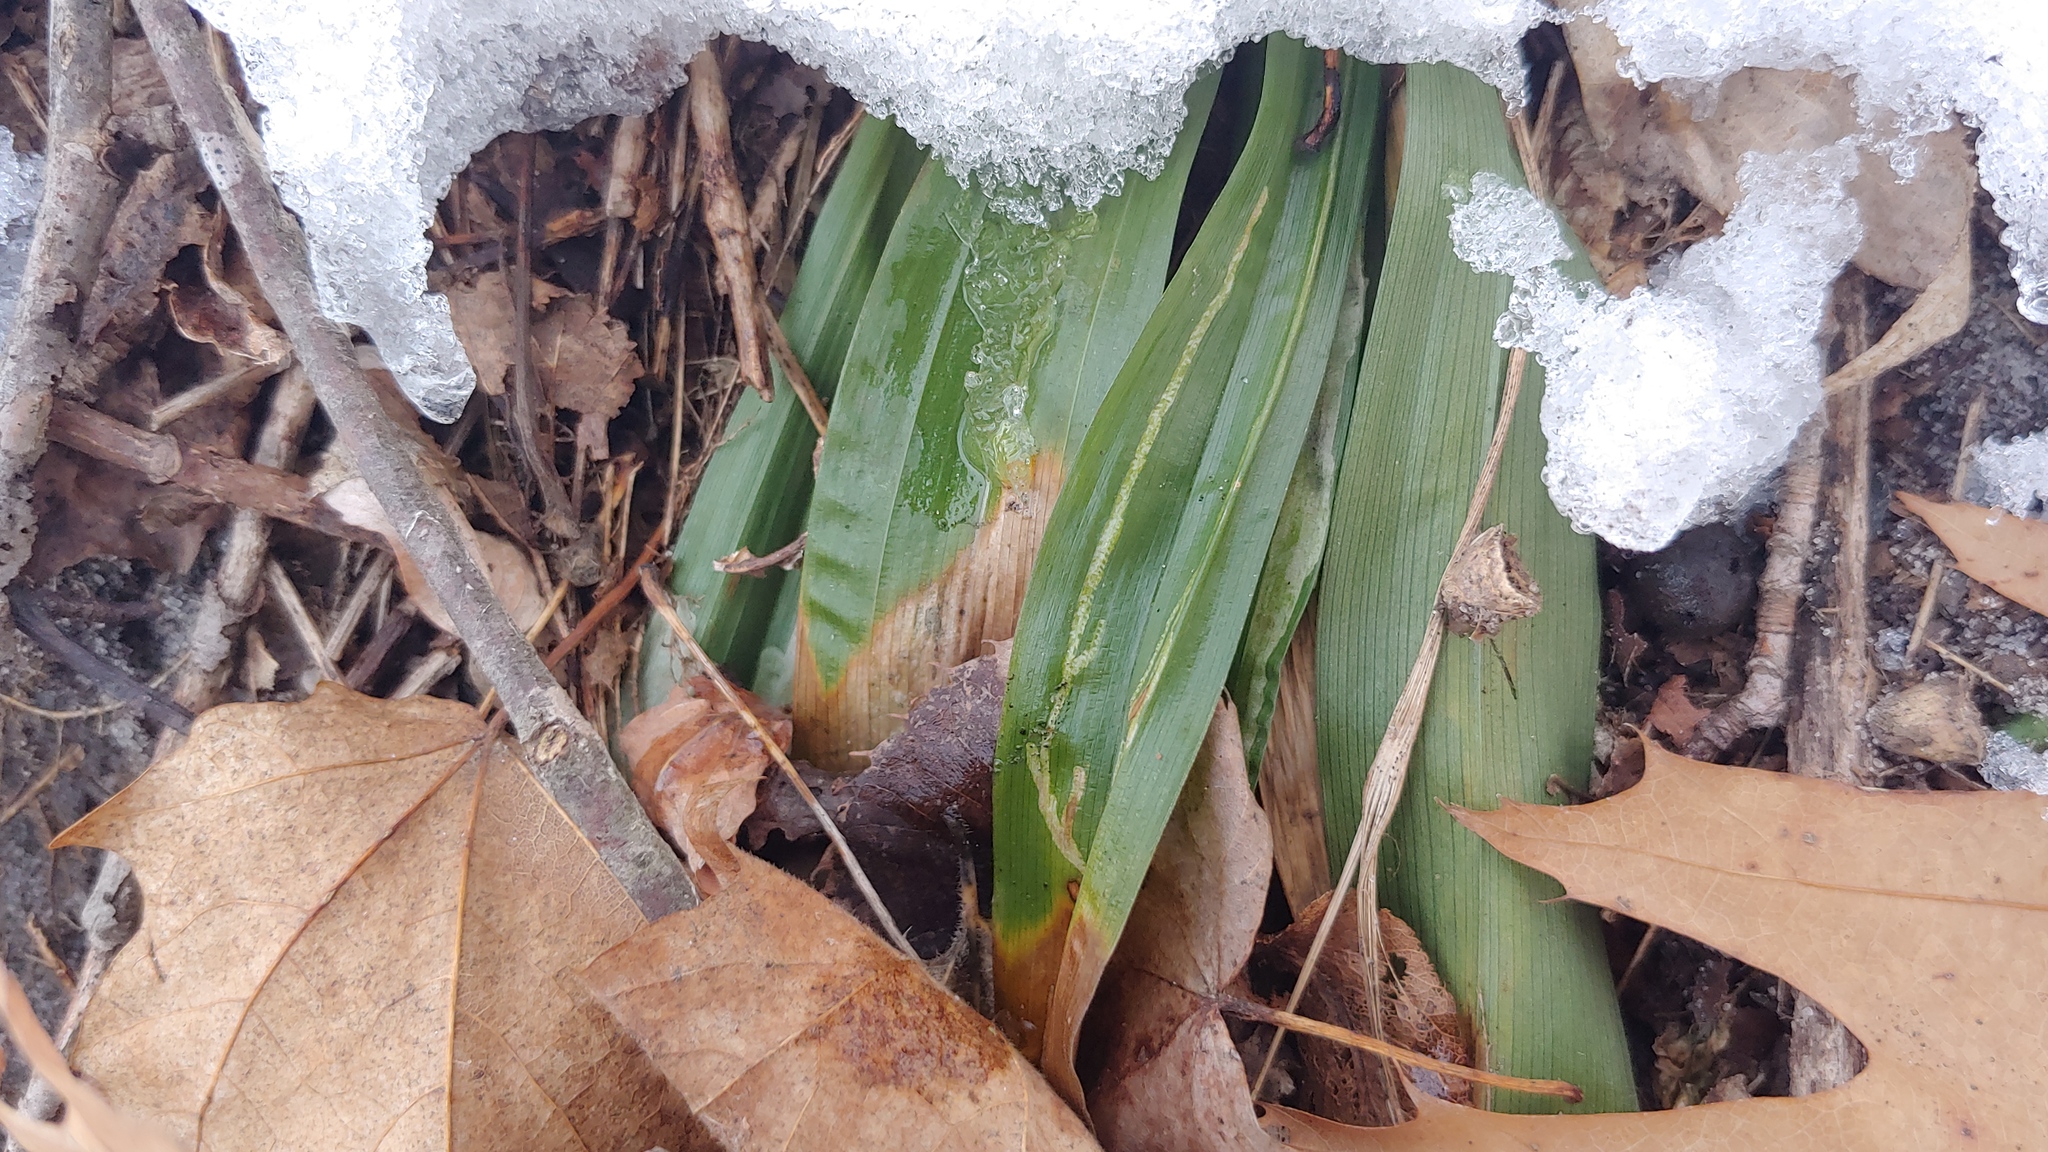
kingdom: Plantae
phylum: Tracheophyta
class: Liliopsida
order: Poales
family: Cyperaceae
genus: Carex
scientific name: Carex albursina
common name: Blunt-scale wood sedge
